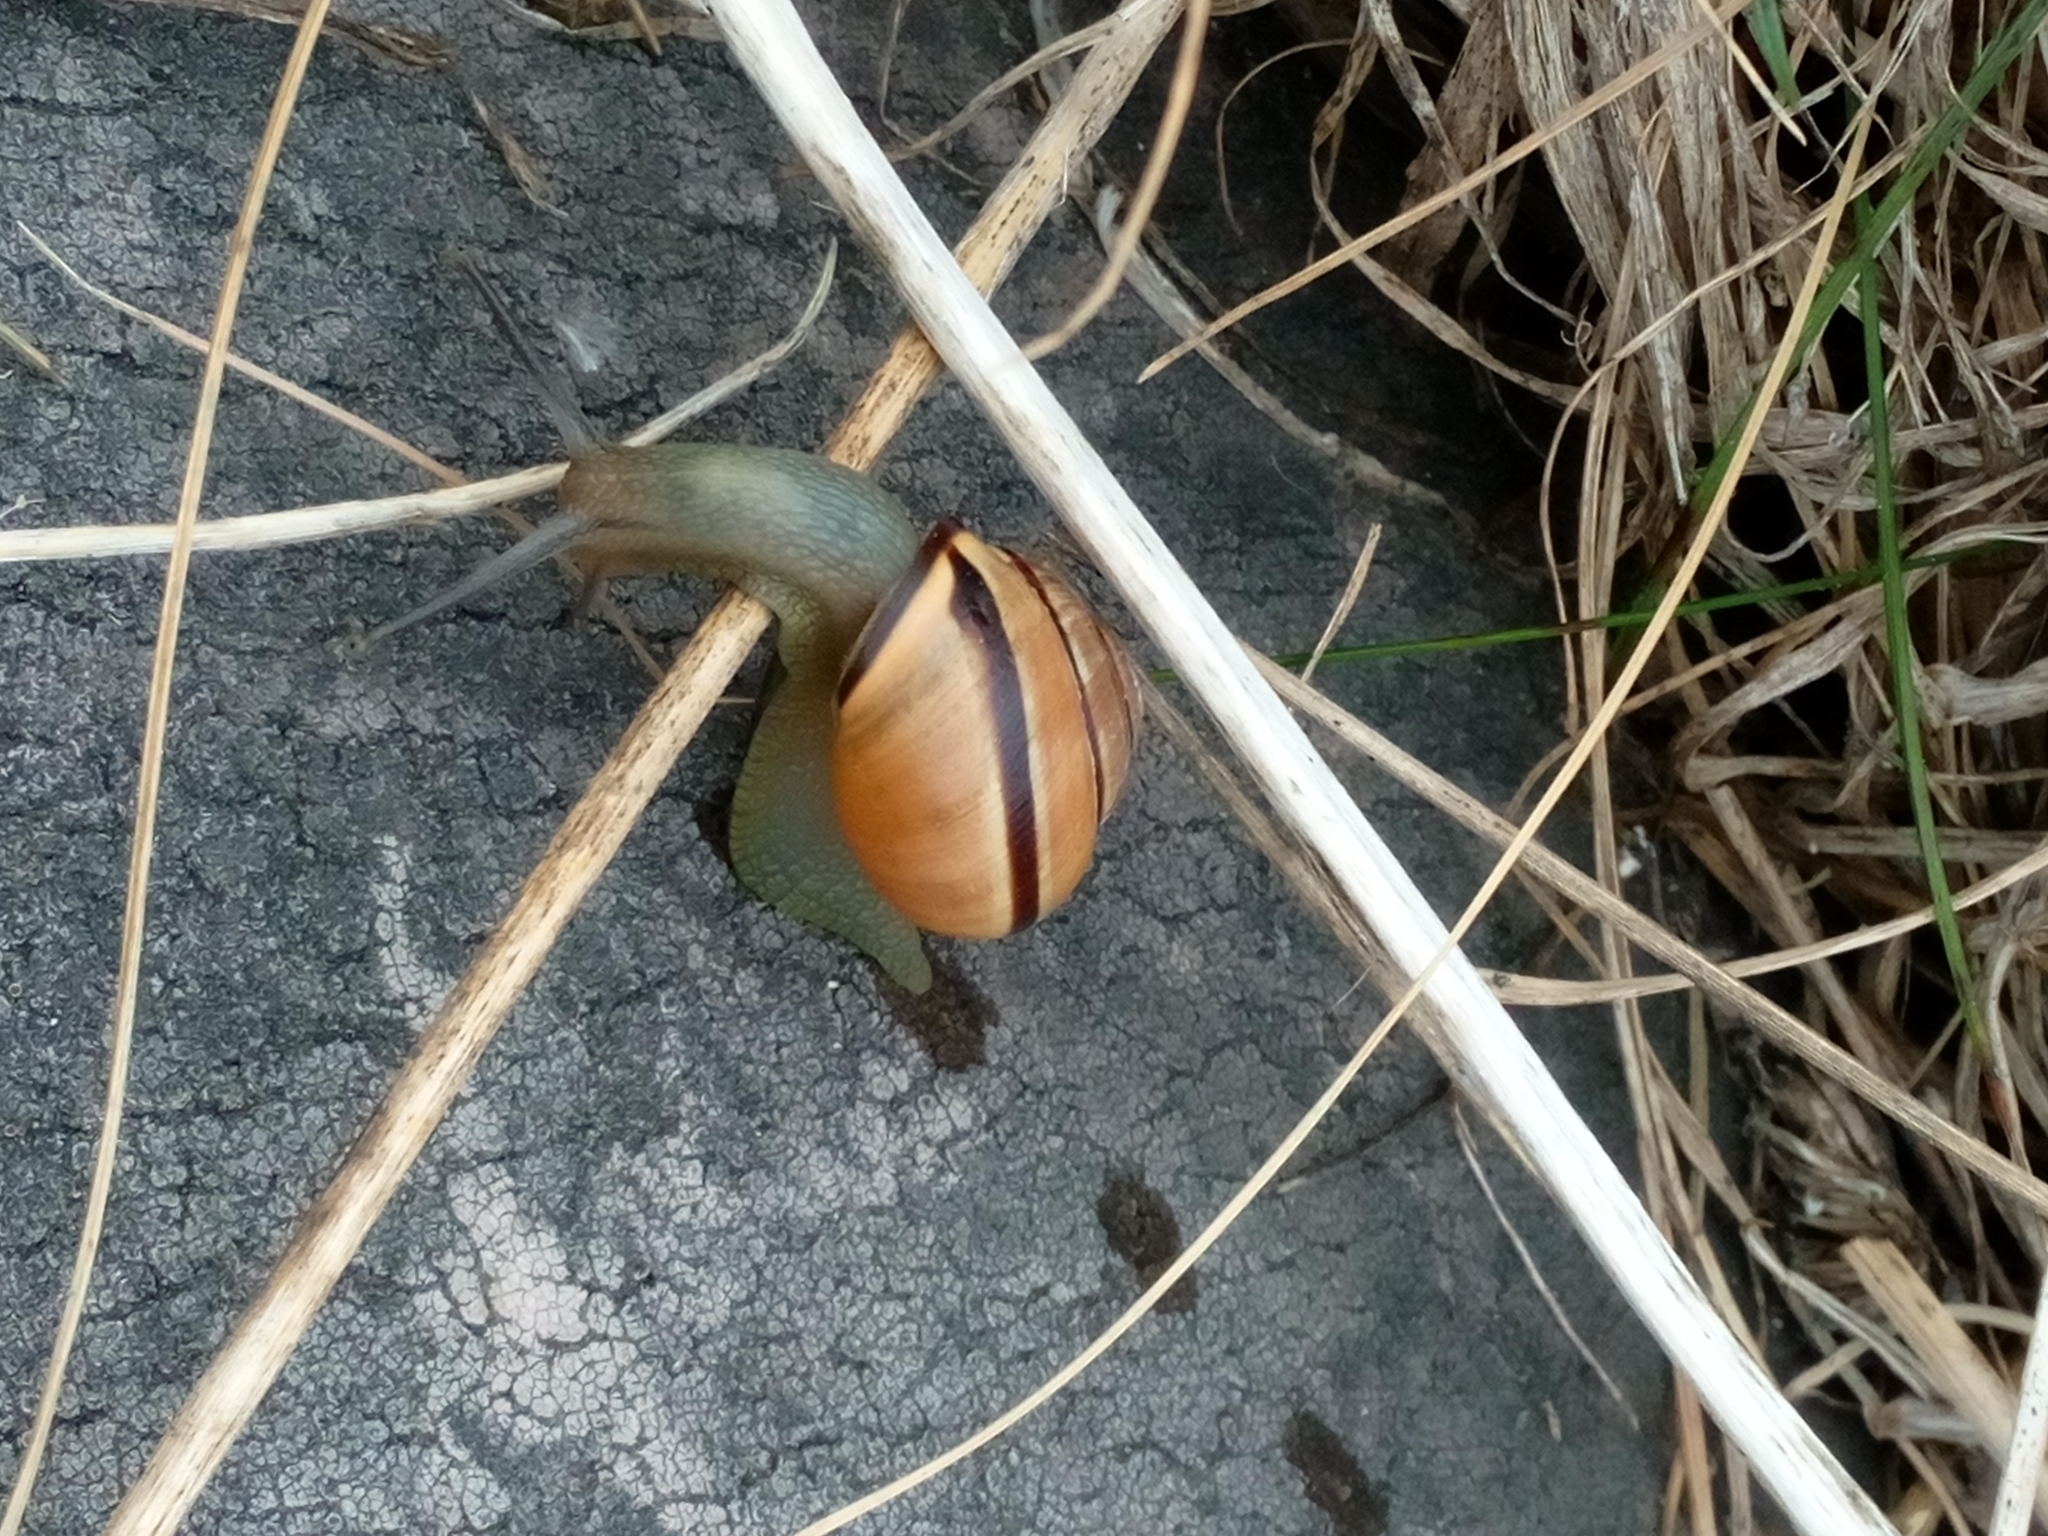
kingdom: Animalia
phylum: Mollusca
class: Gastropoda
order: Stylommatophora
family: Helicidae
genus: Cepaea
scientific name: Cepaea nemoralis
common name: Grovesnail
